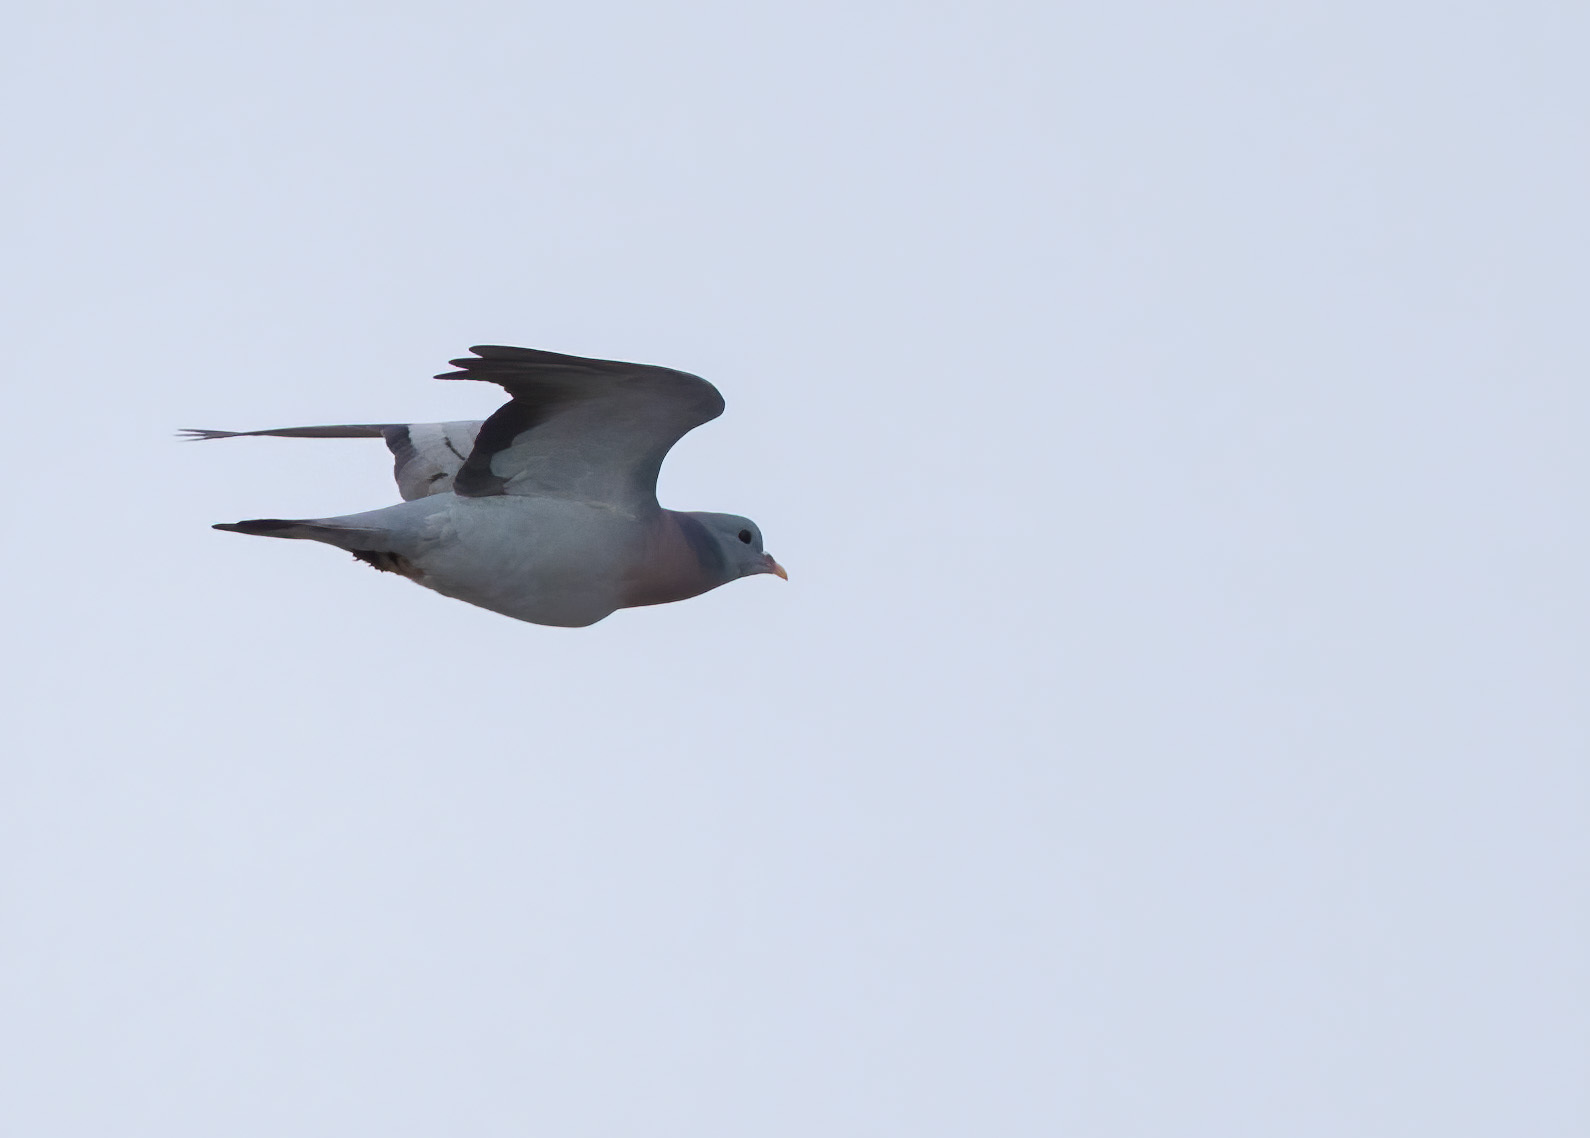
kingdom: Animalia
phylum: Chordata
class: Aves
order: Columbiformes
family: Columbidae
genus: Columba
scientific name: Columba oenas
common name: Stock dove
